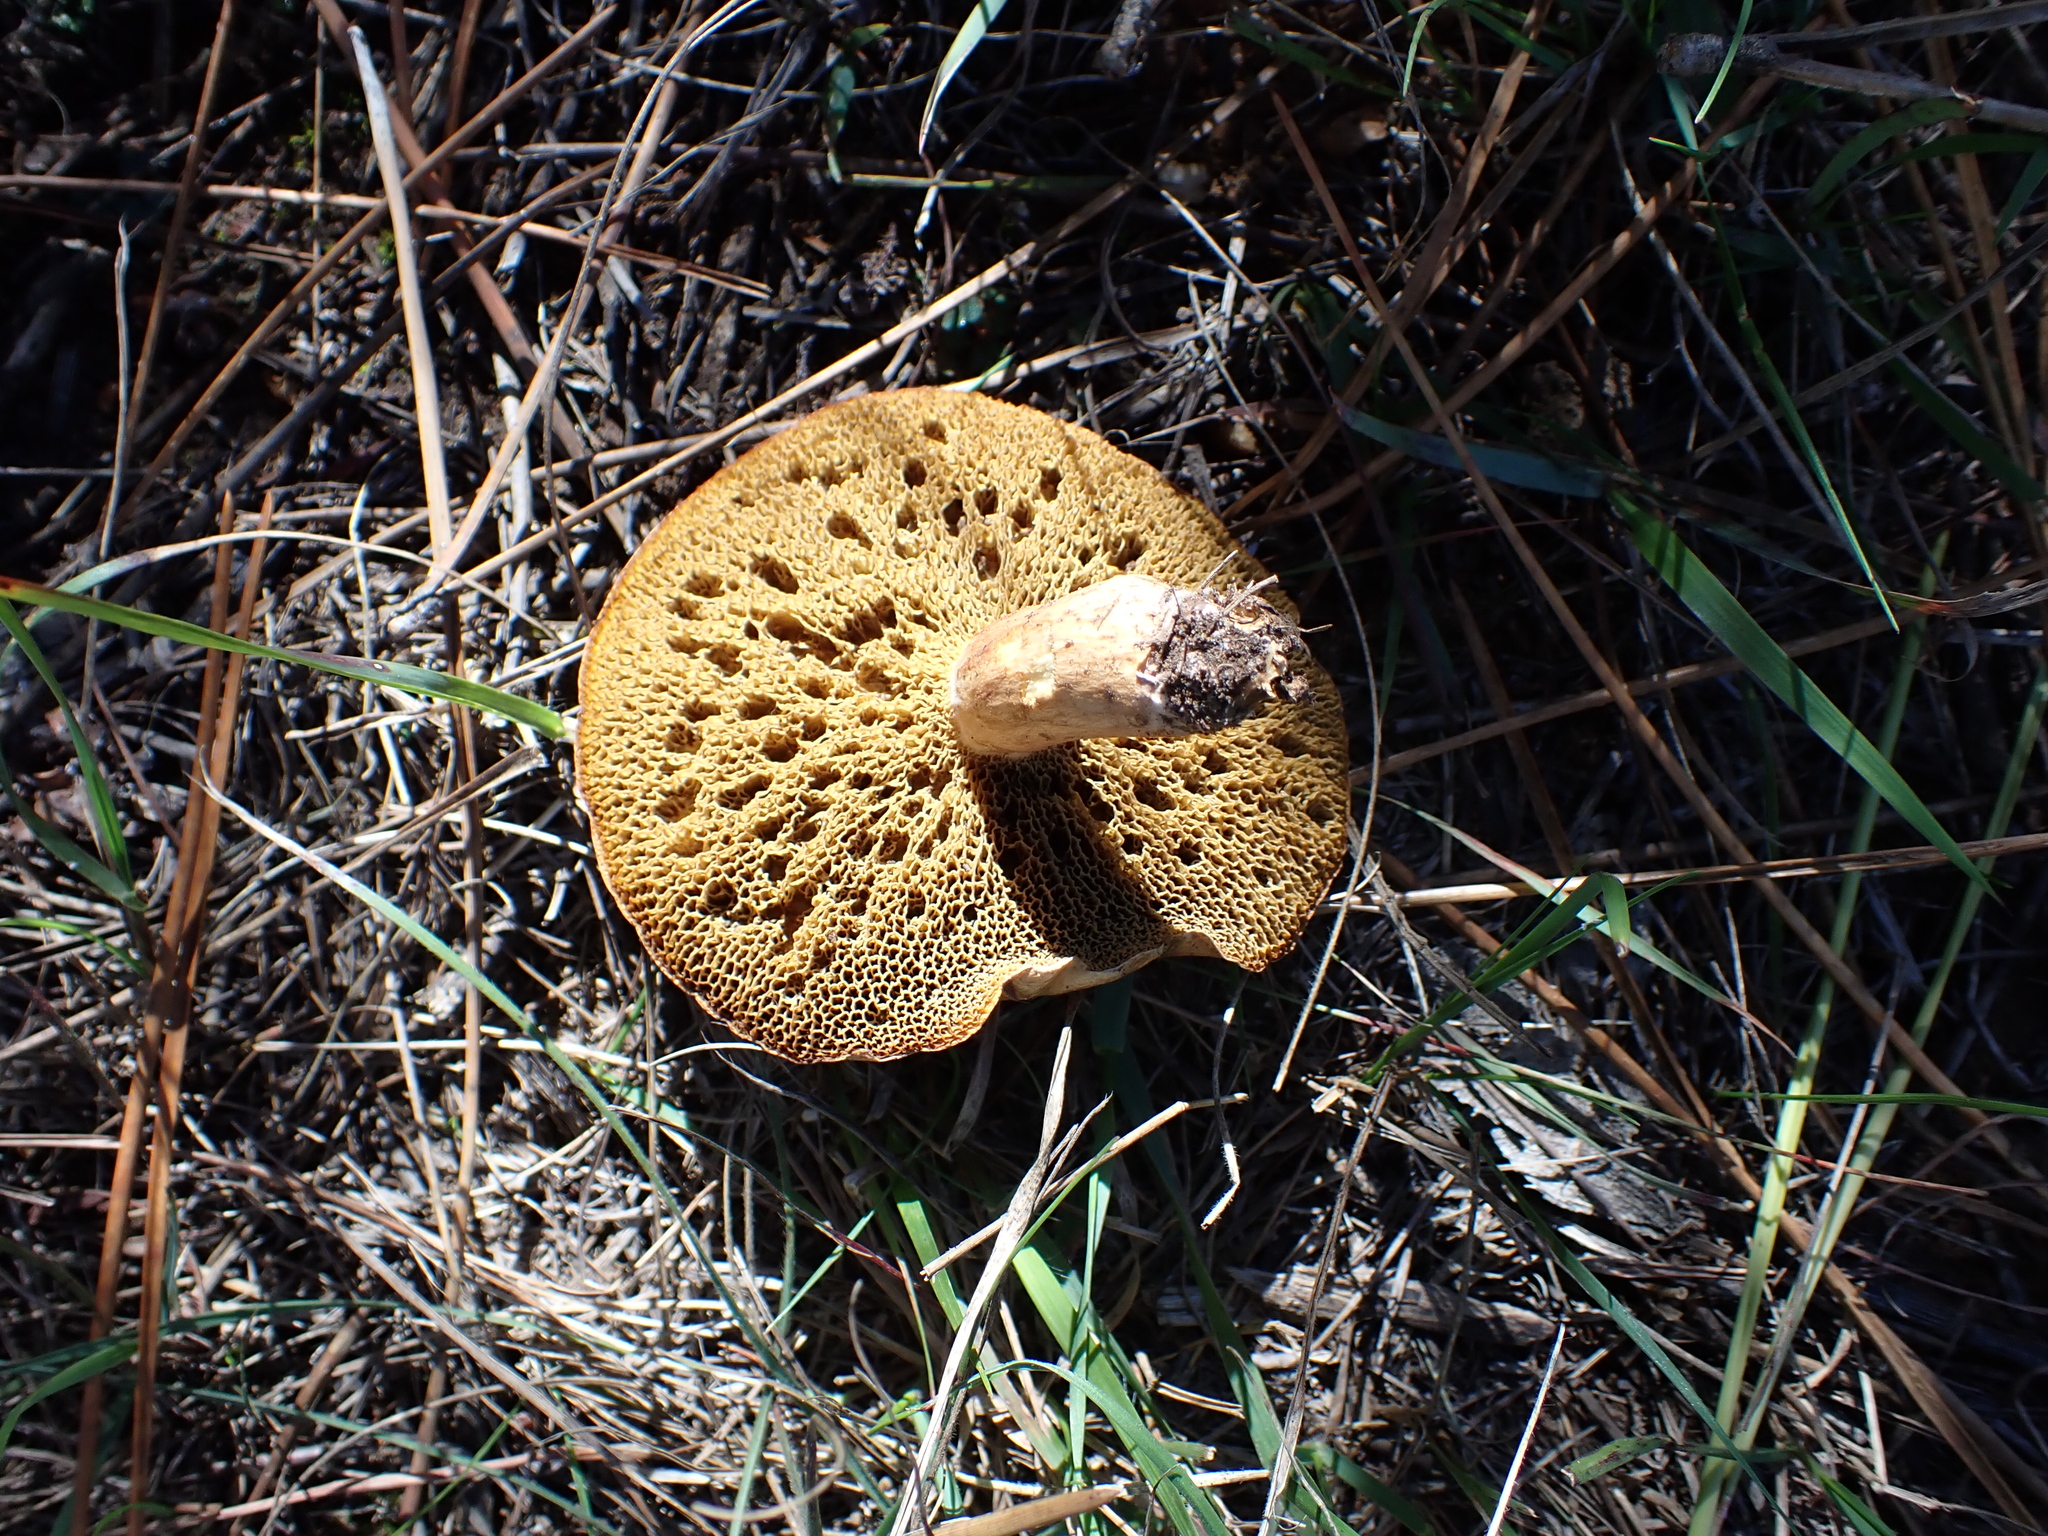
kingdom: Fungi
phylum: Basidiomycota
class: Agaricomycetes
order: Boletales
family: Suillaceae
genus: Suillus
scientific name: Suillus bovinus
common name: Bovine bolete
